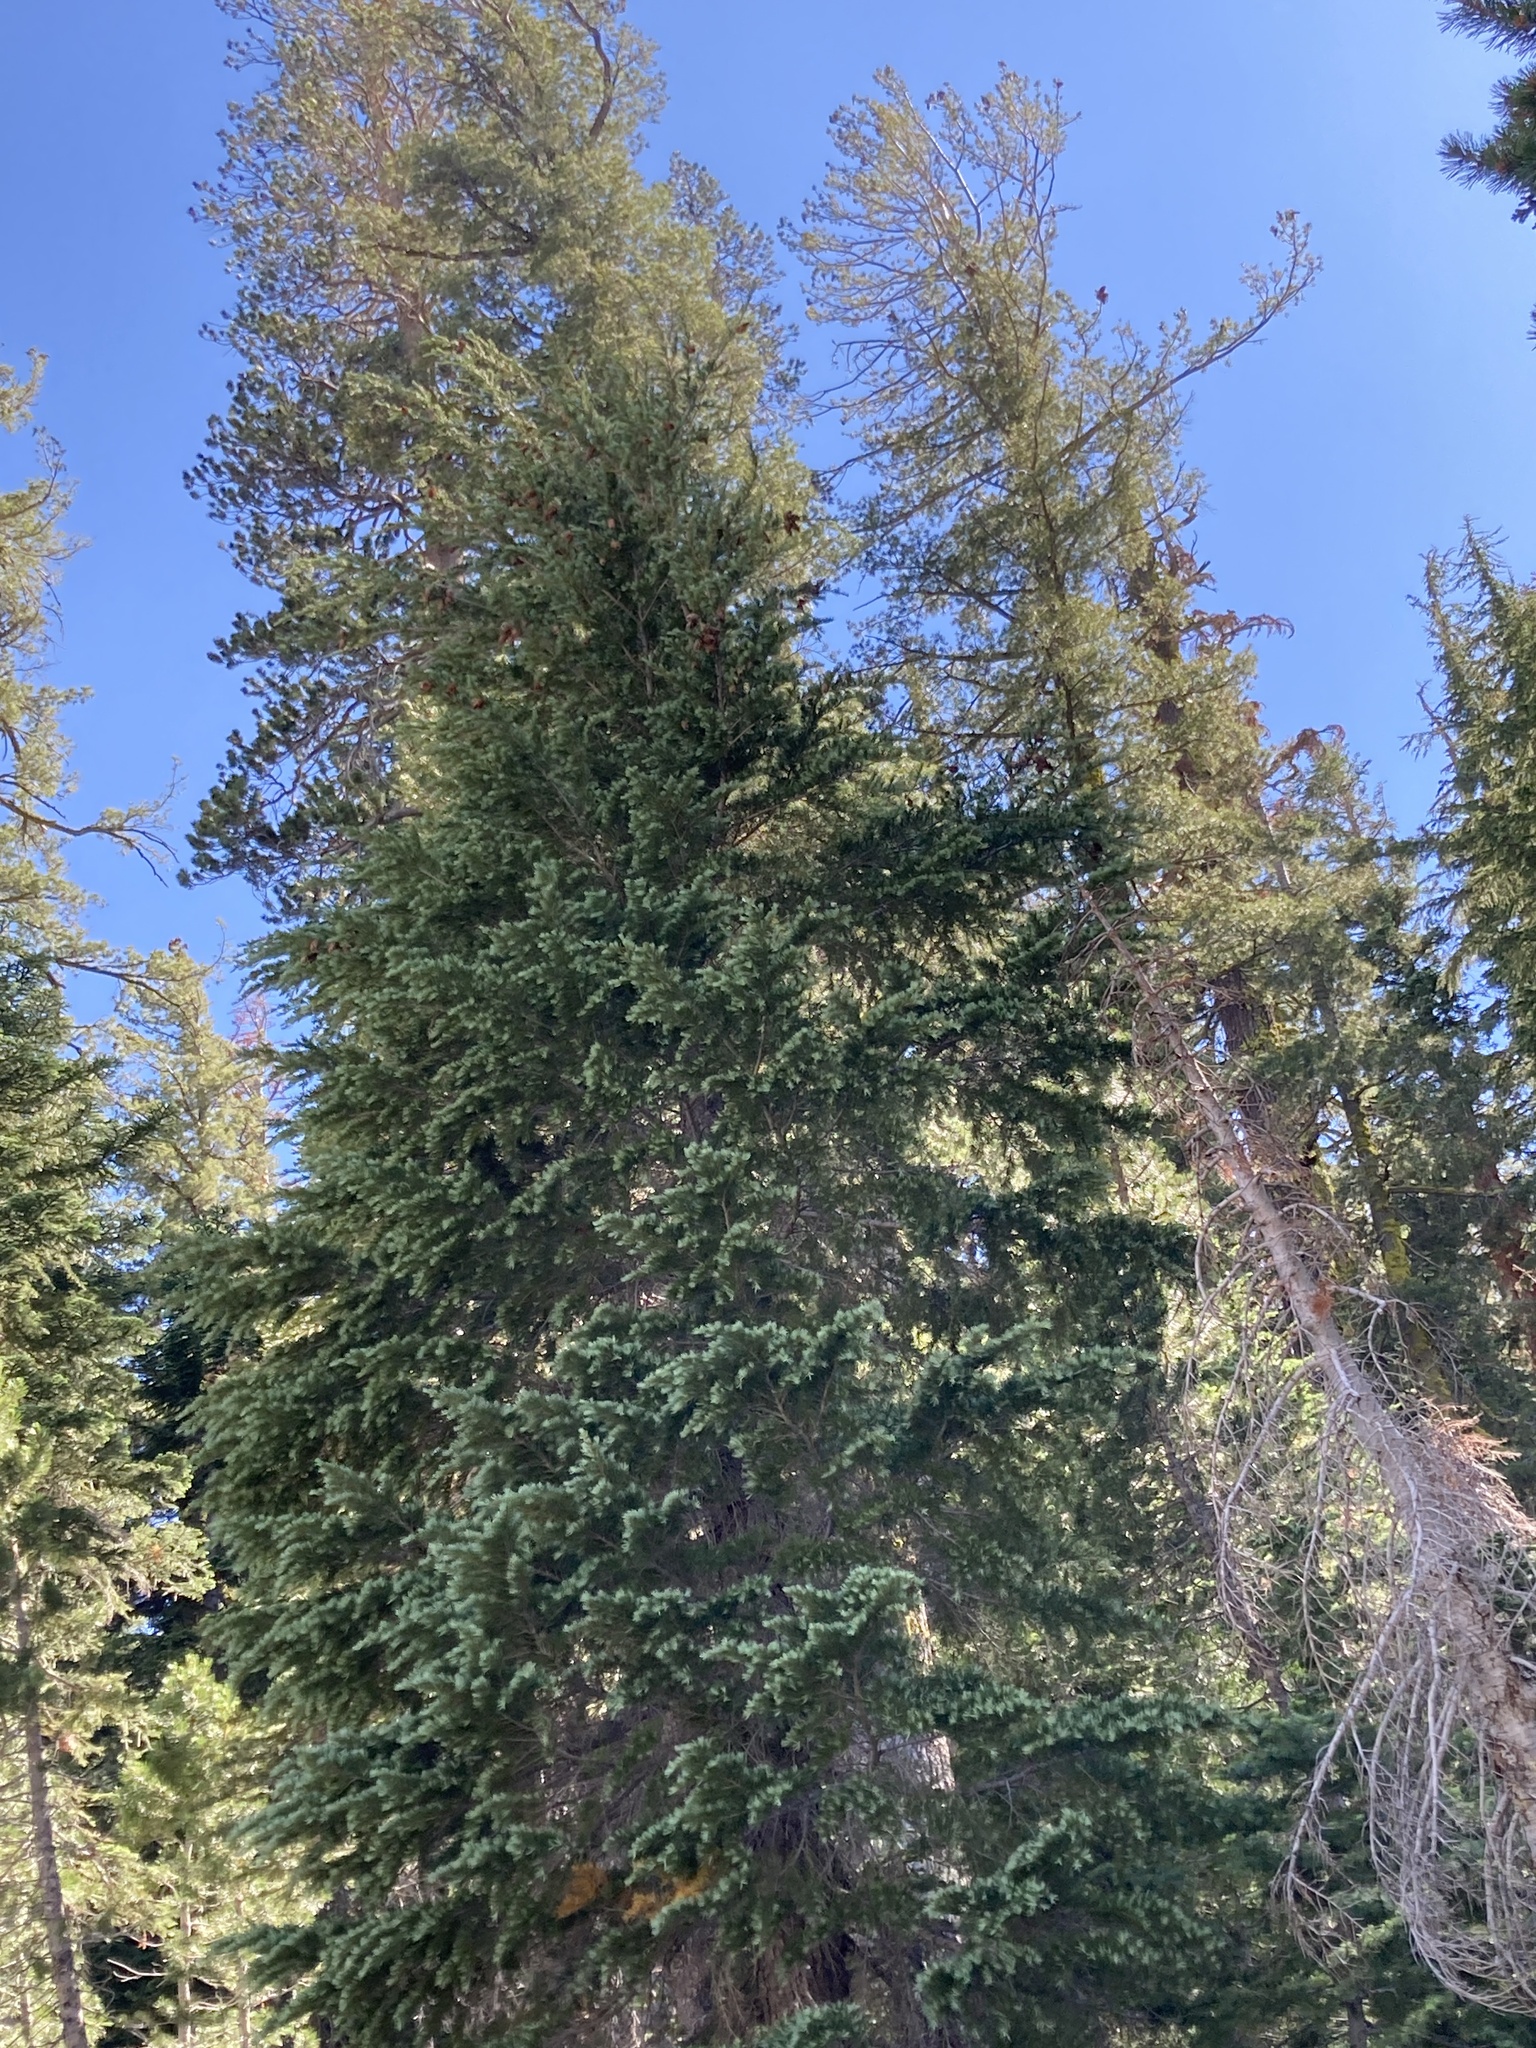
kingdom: Plantae
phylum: Tracheophyta
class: Pinopsida
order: Pinales
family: Pinaceae
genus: Tsuga
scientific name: Tsuga mertensiana
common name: Mountain hemlock
